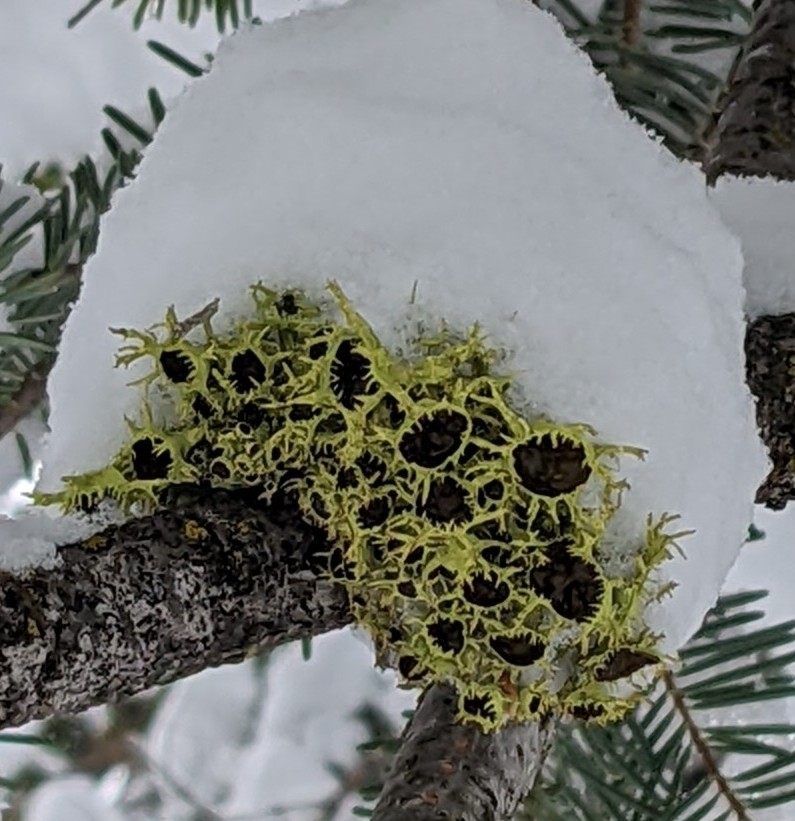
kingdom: Fungi
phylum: Ascomycota
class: Lecanoromycetes
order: Lecanorales
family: Parmeliaceae
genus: Letharia
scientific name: Letharia columbiana
